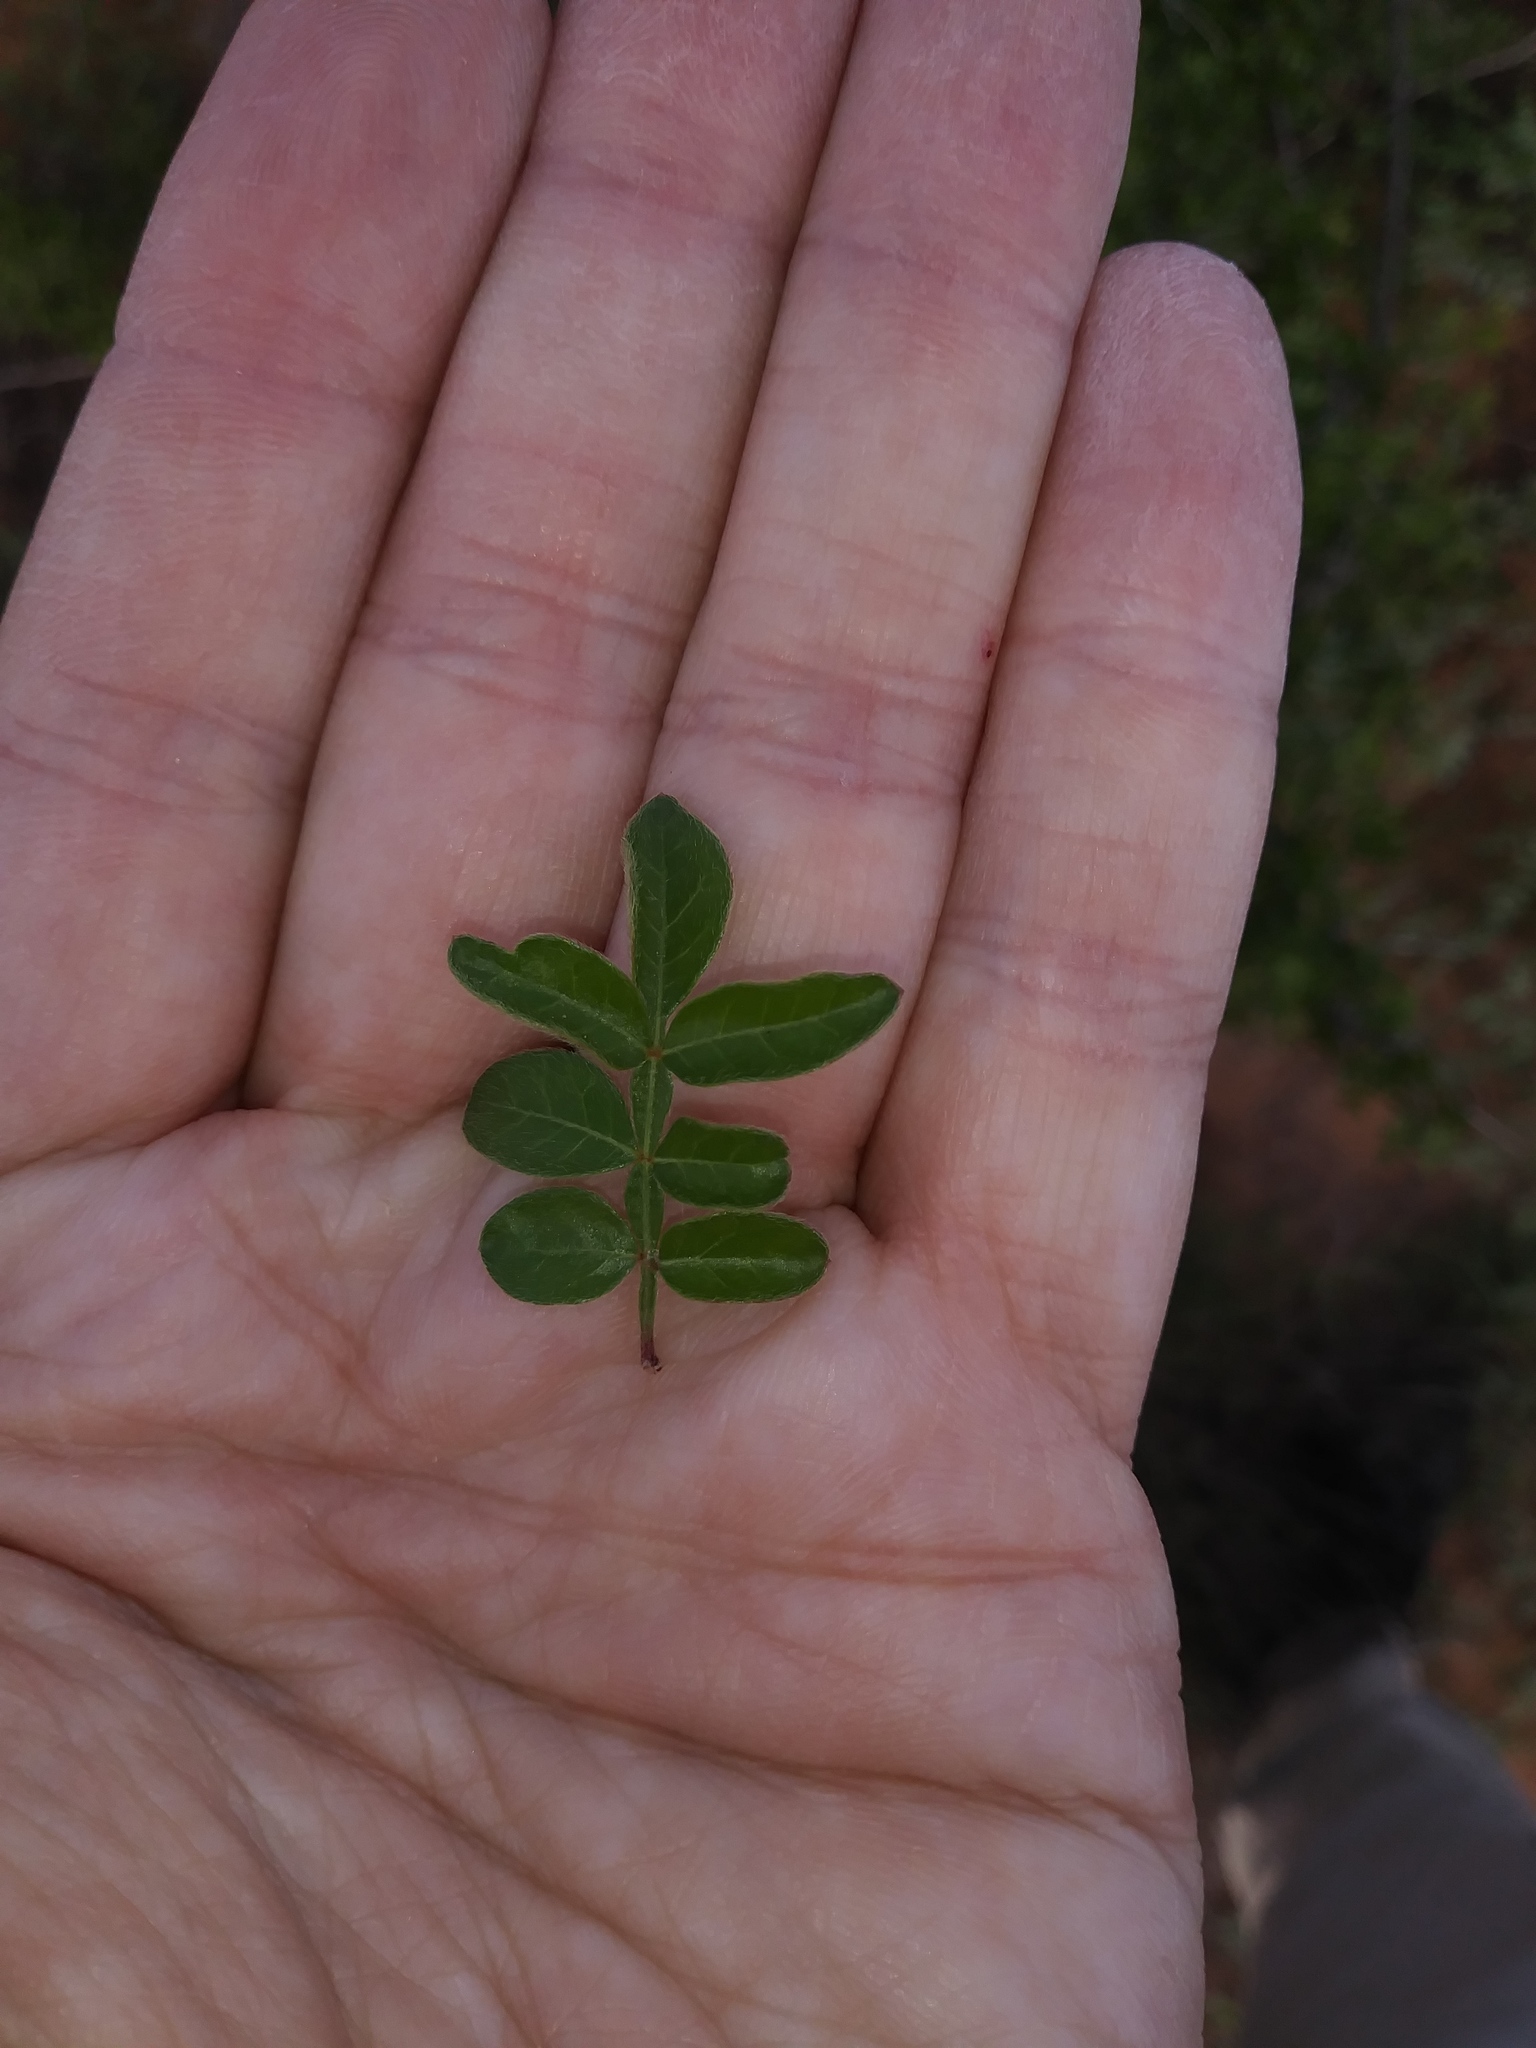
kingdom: Plantae
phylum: Tracheophyta
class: Magnoliopsida
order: Sapindales
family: Anacardiaceae
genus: Rhus
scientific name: Rhus microphylla
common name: Desert sumac
